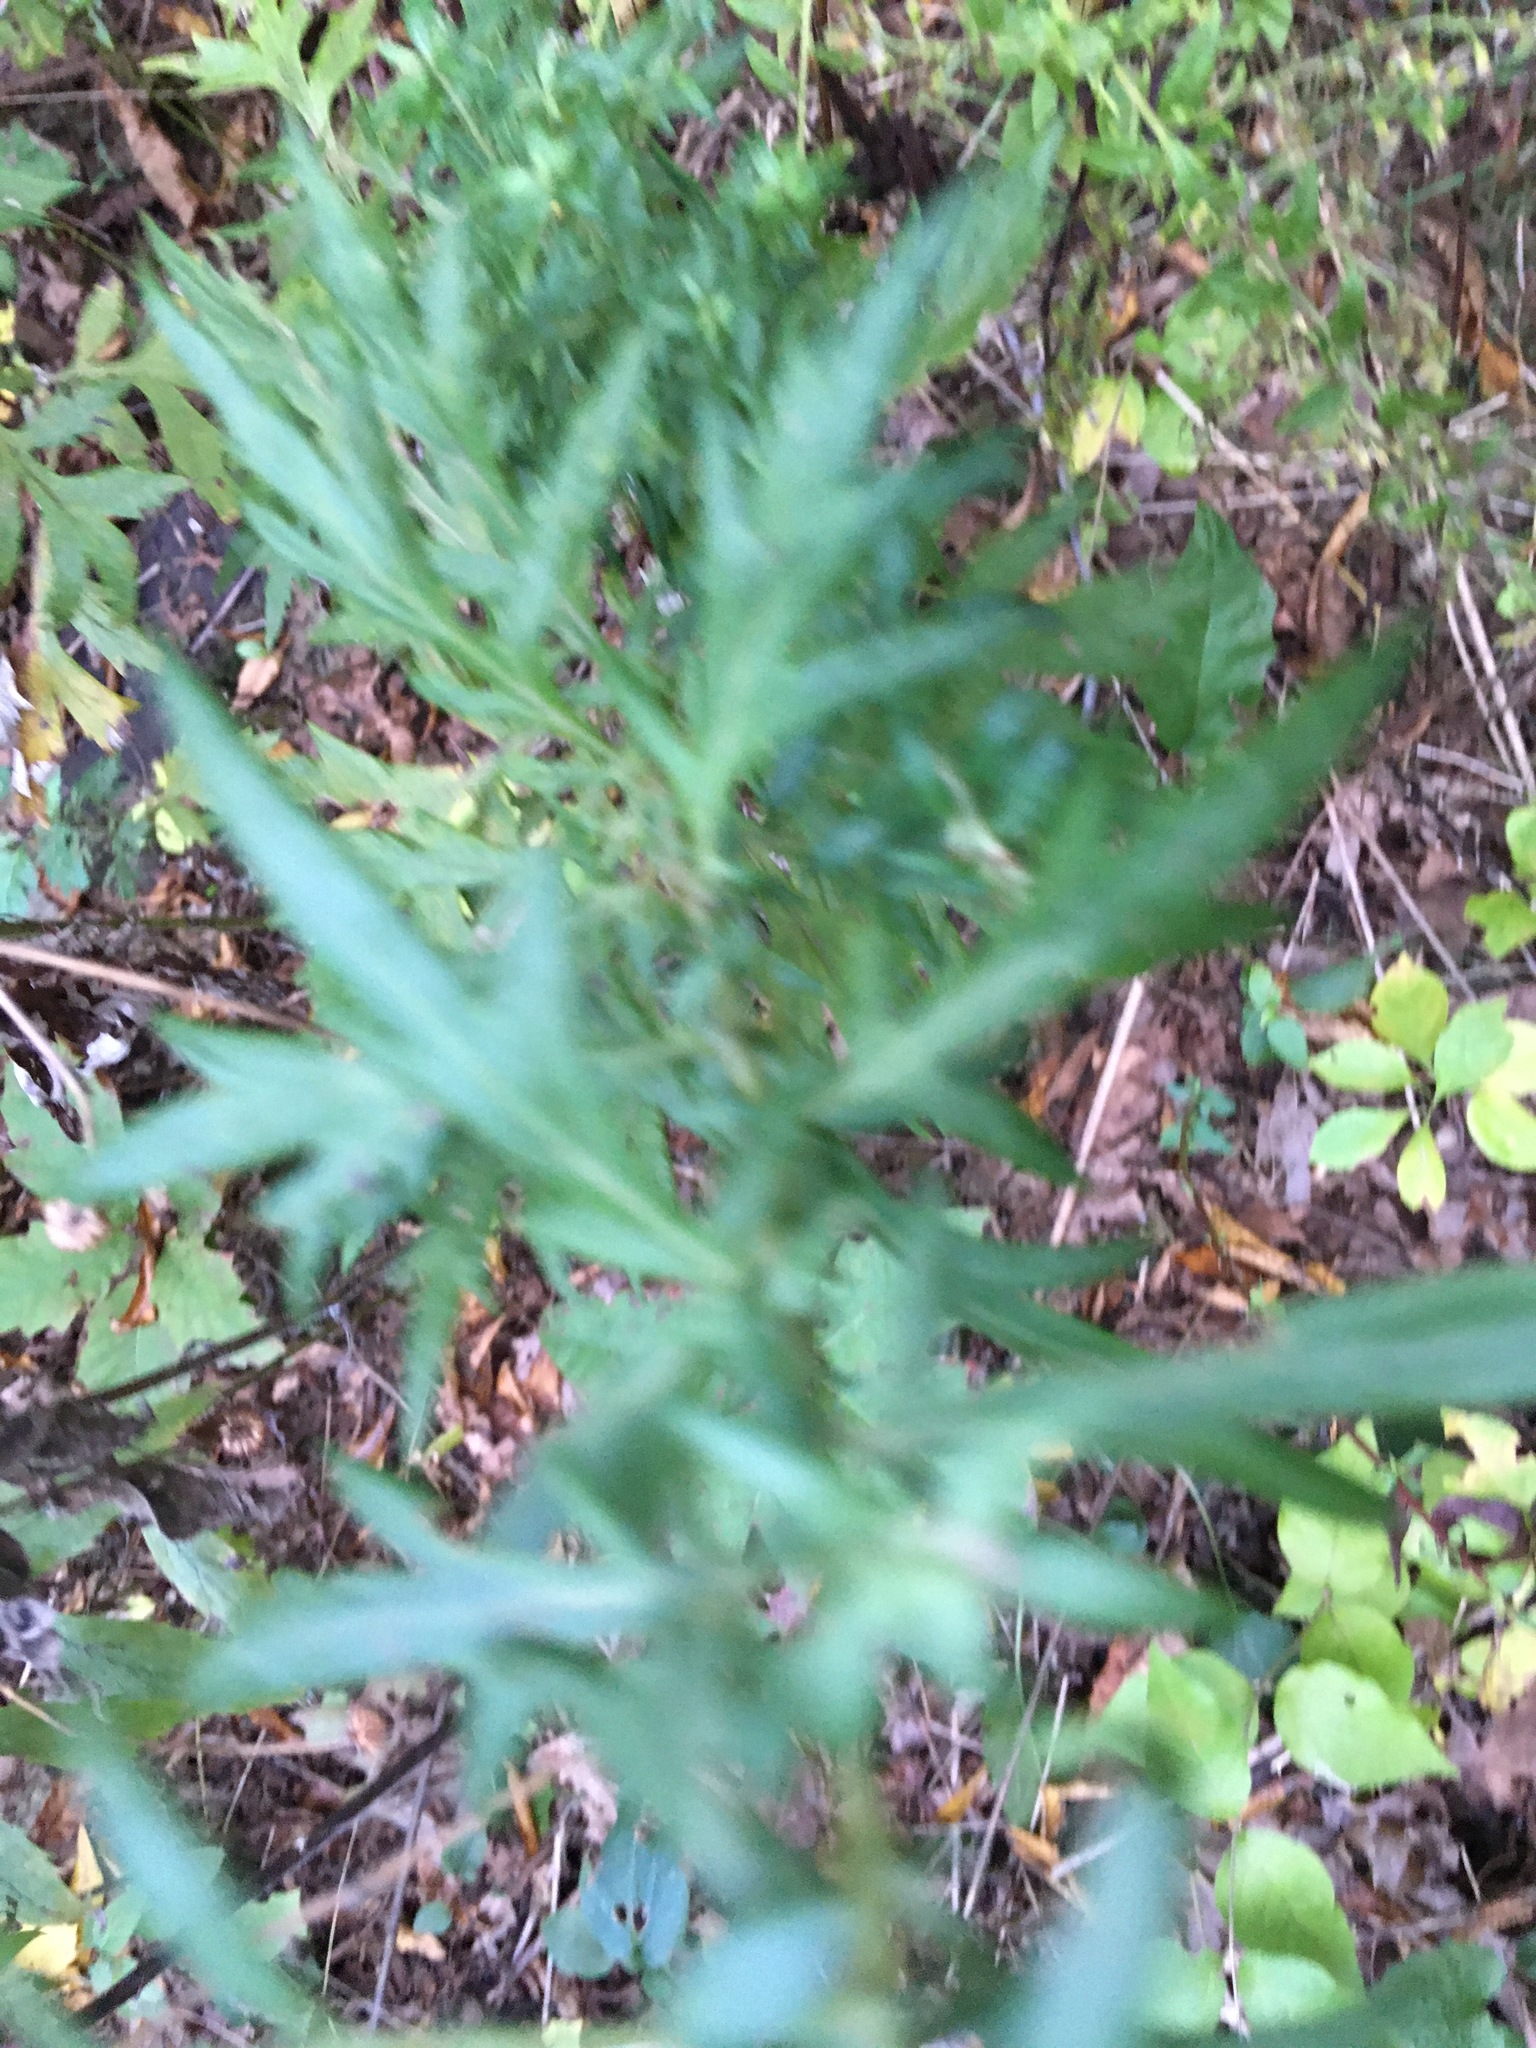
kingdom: Plantae
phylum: Tracheophyta
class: Magnoliopsida
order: Asterales
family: Asteraceae
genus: Artemisia
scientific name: Artemisia vulgaris
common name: Mugwort
